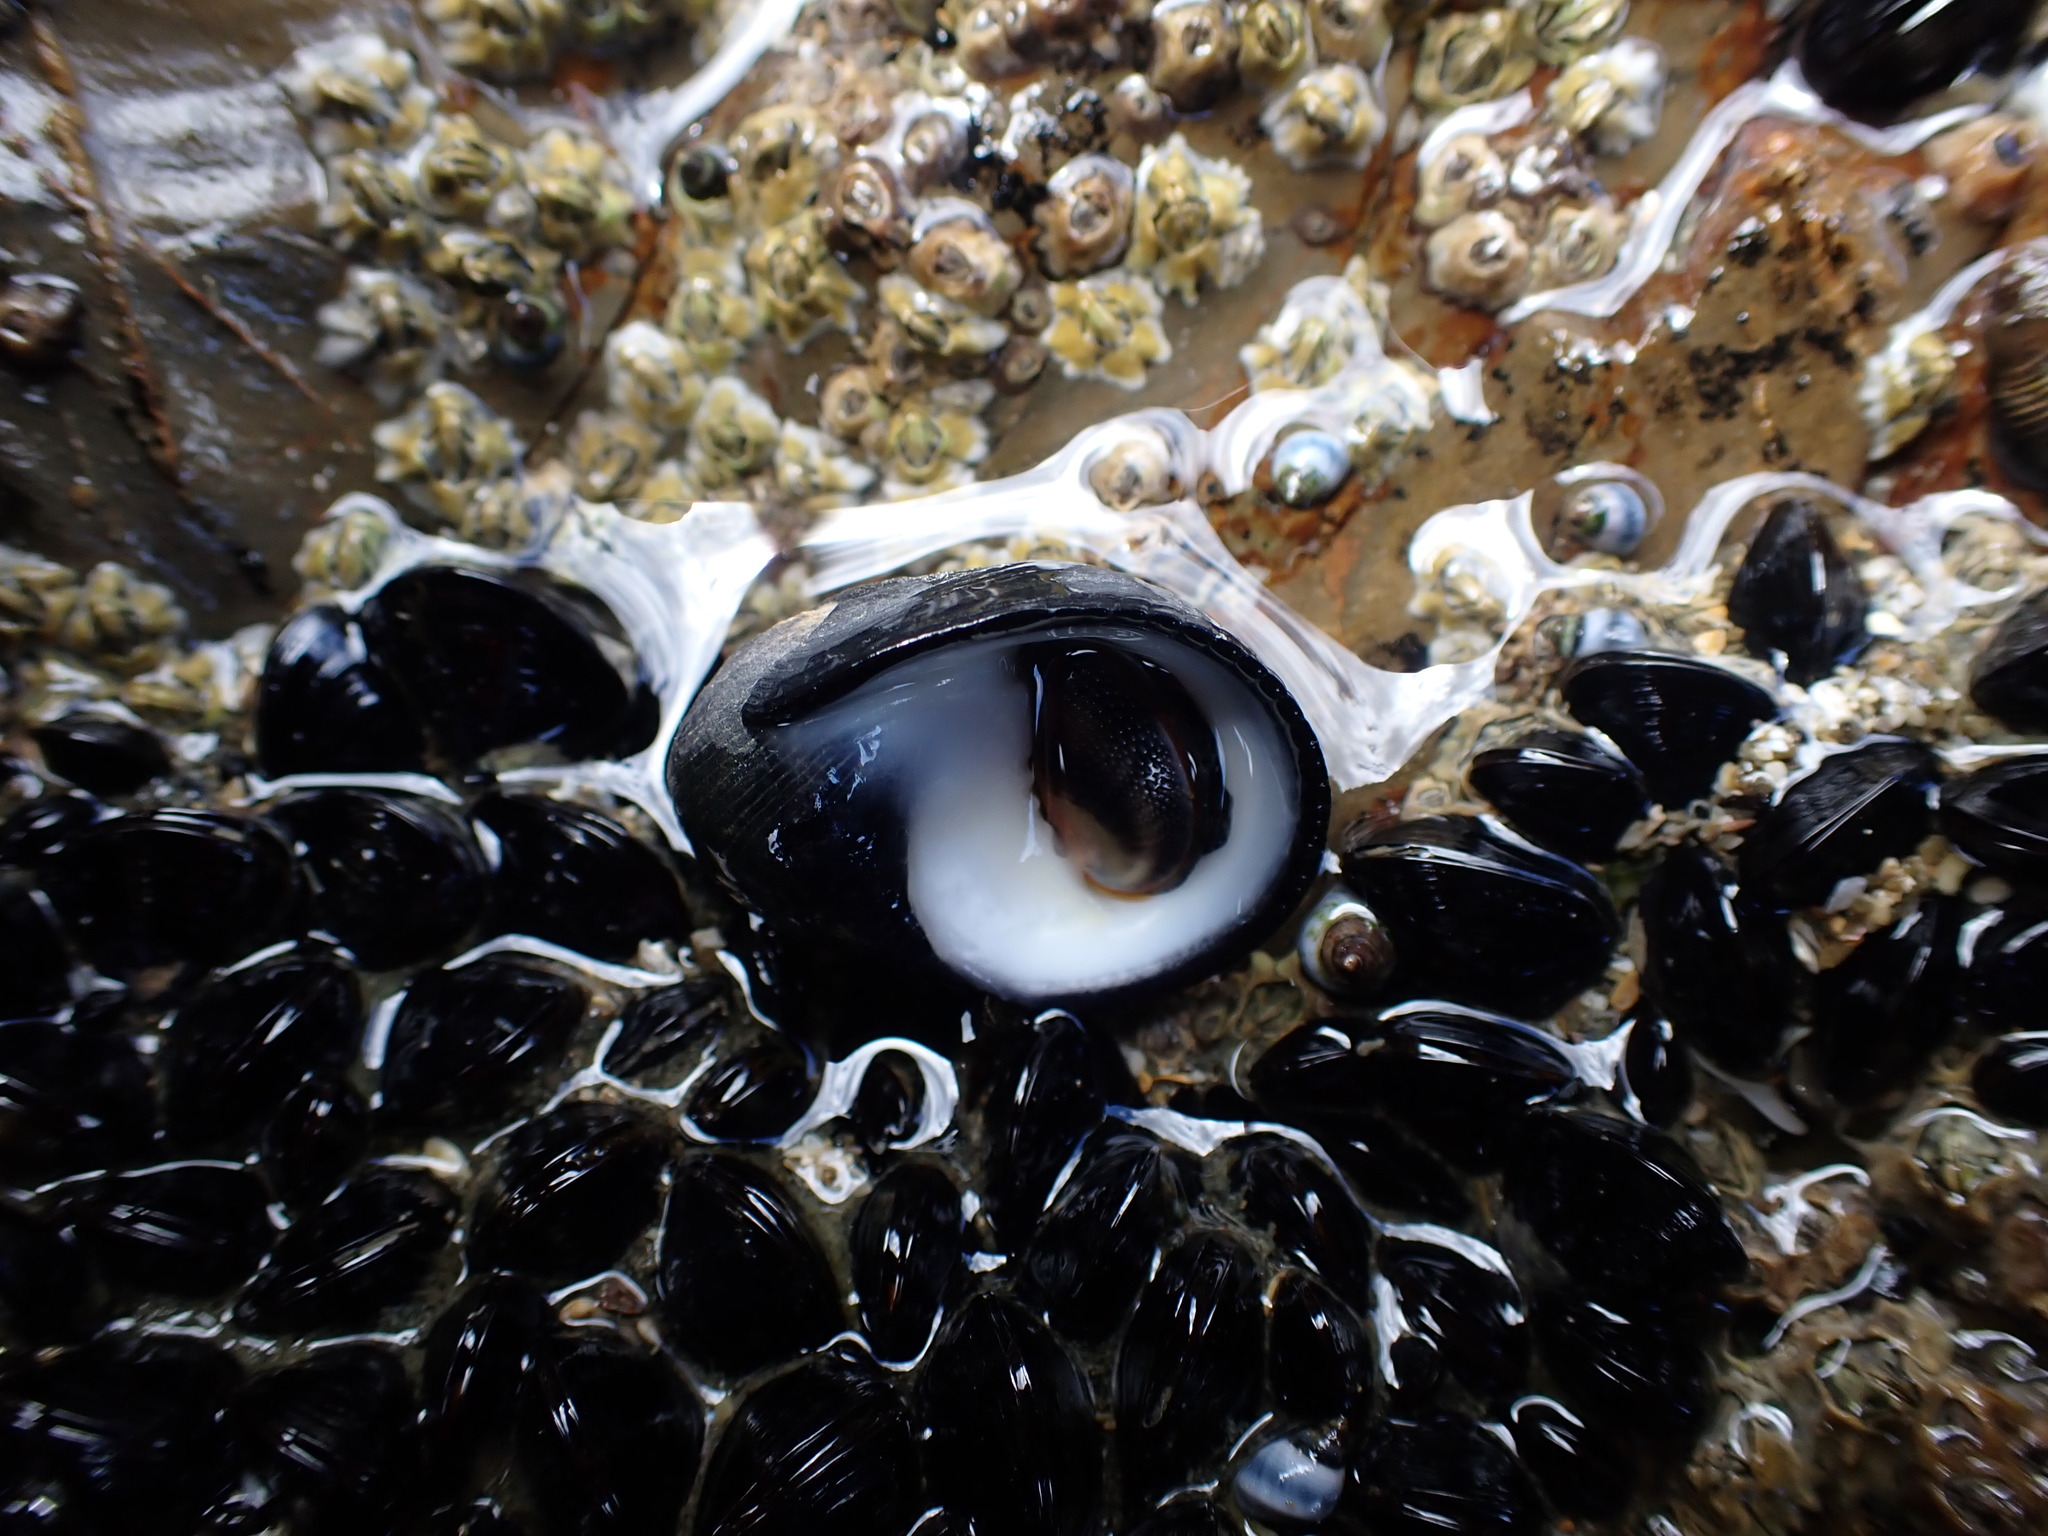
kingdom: Animalia
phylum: Mollusca
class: Gastropoda
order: Cycloneritida
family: Neritidae
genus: Nerita
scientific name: Nerita melanotragus
